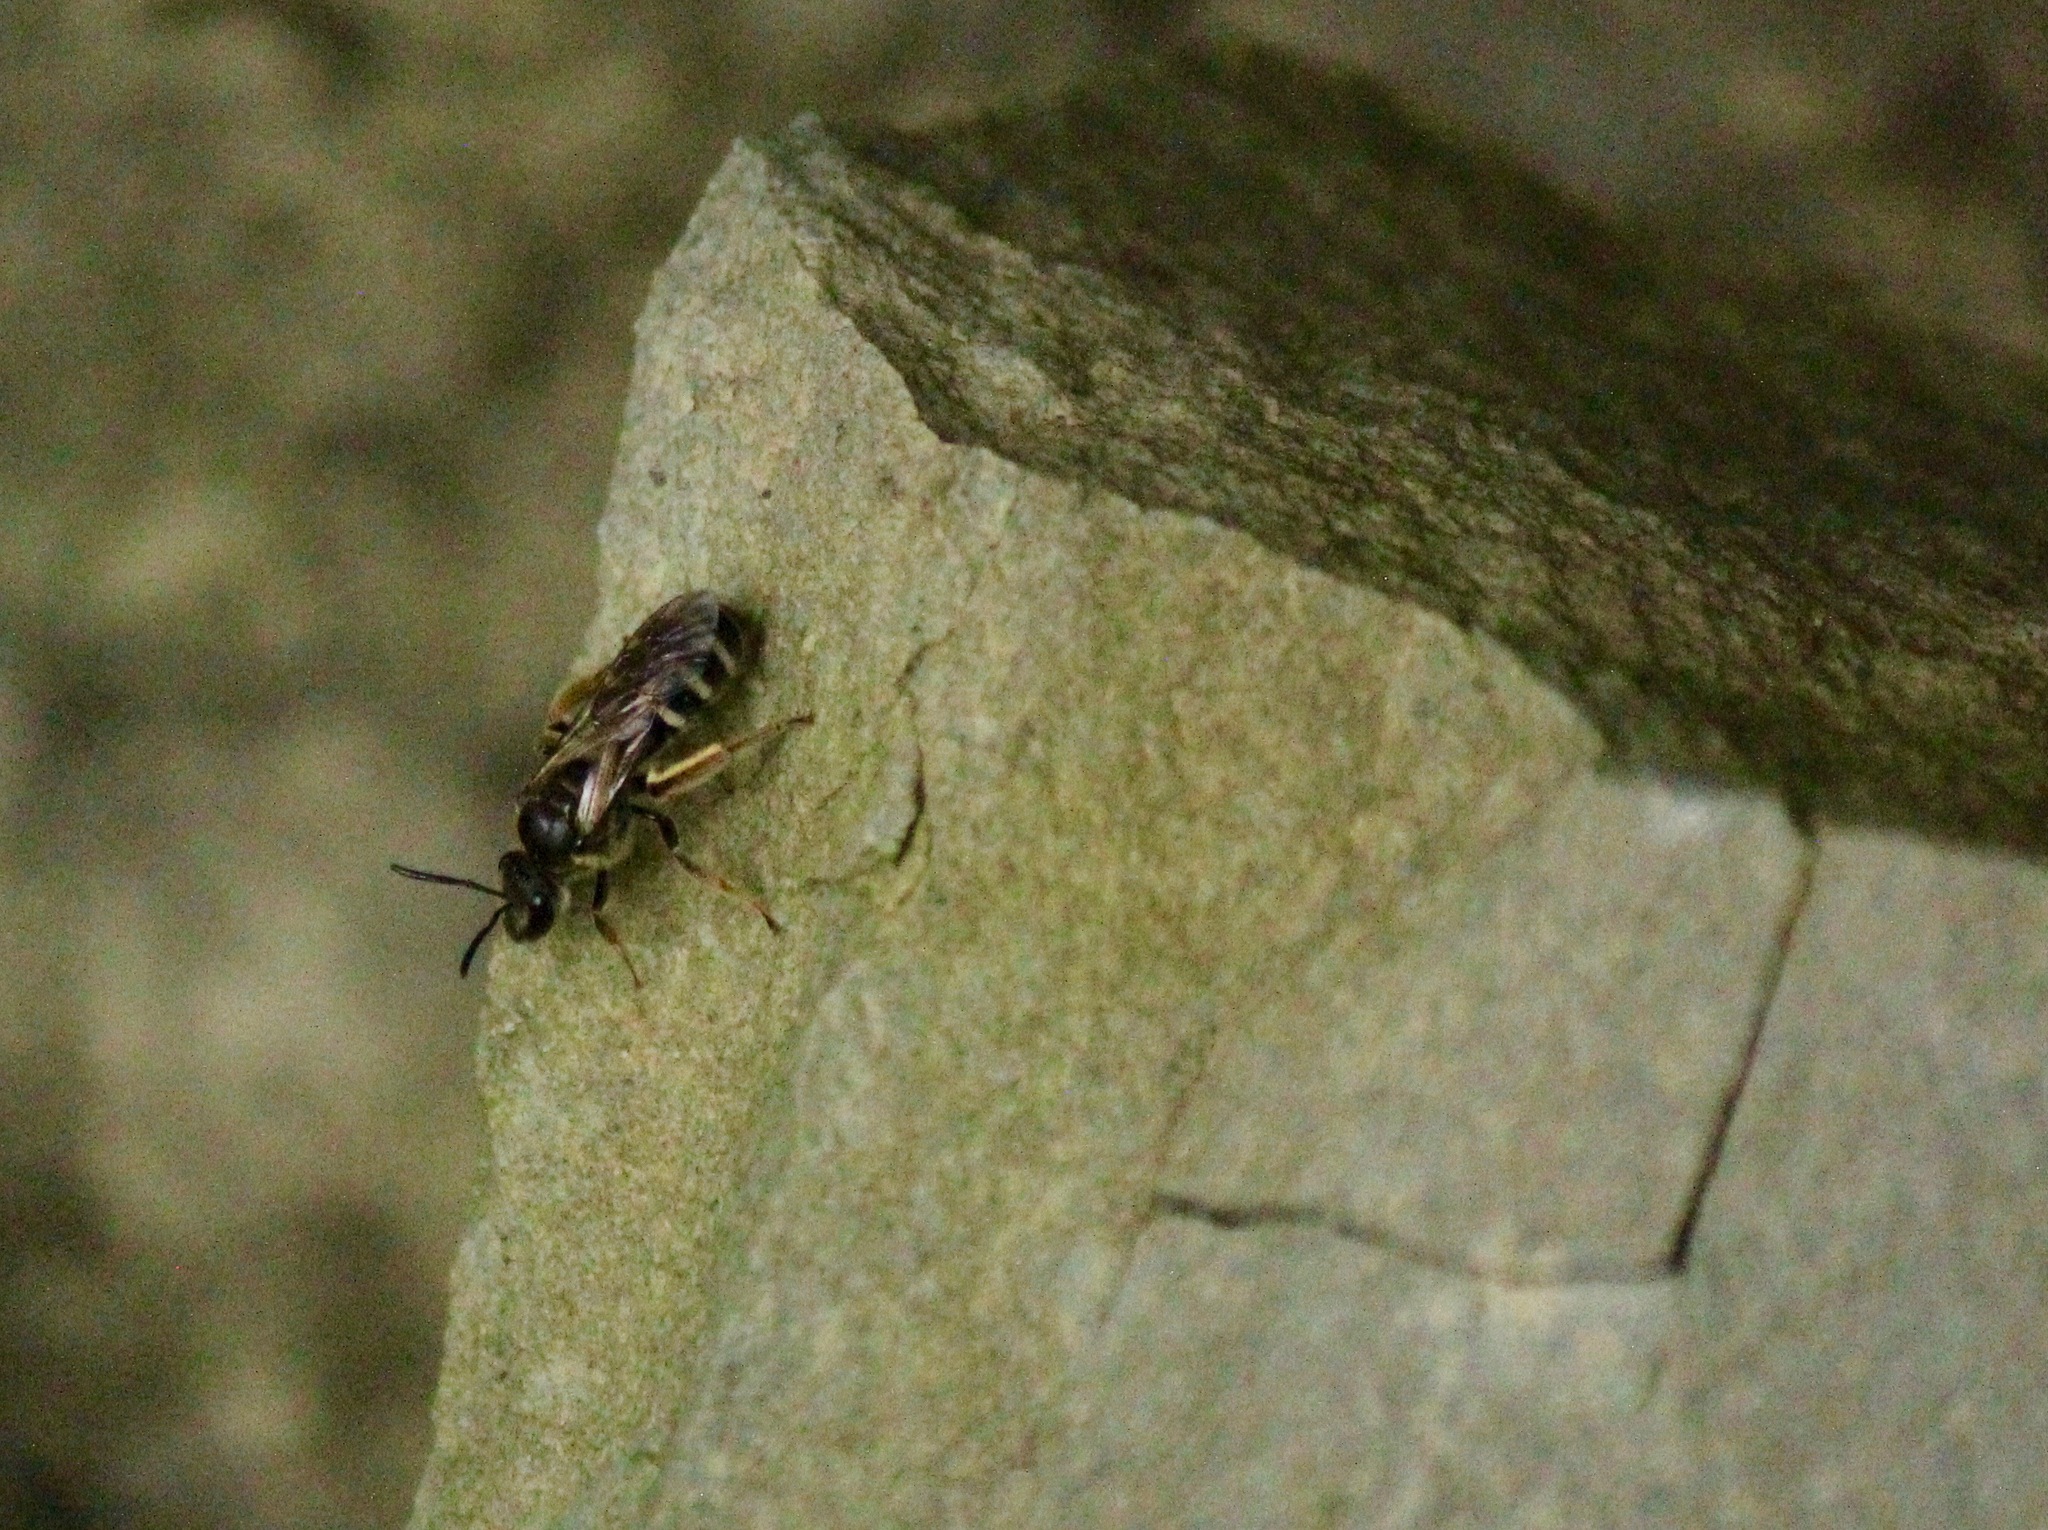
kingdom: Animalia
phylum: Arthropoda
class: Insecta
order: Hymenoptera
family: Halictidae
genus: Halictus
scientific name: Halictus confusus
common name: Southern bronze furrow bee
